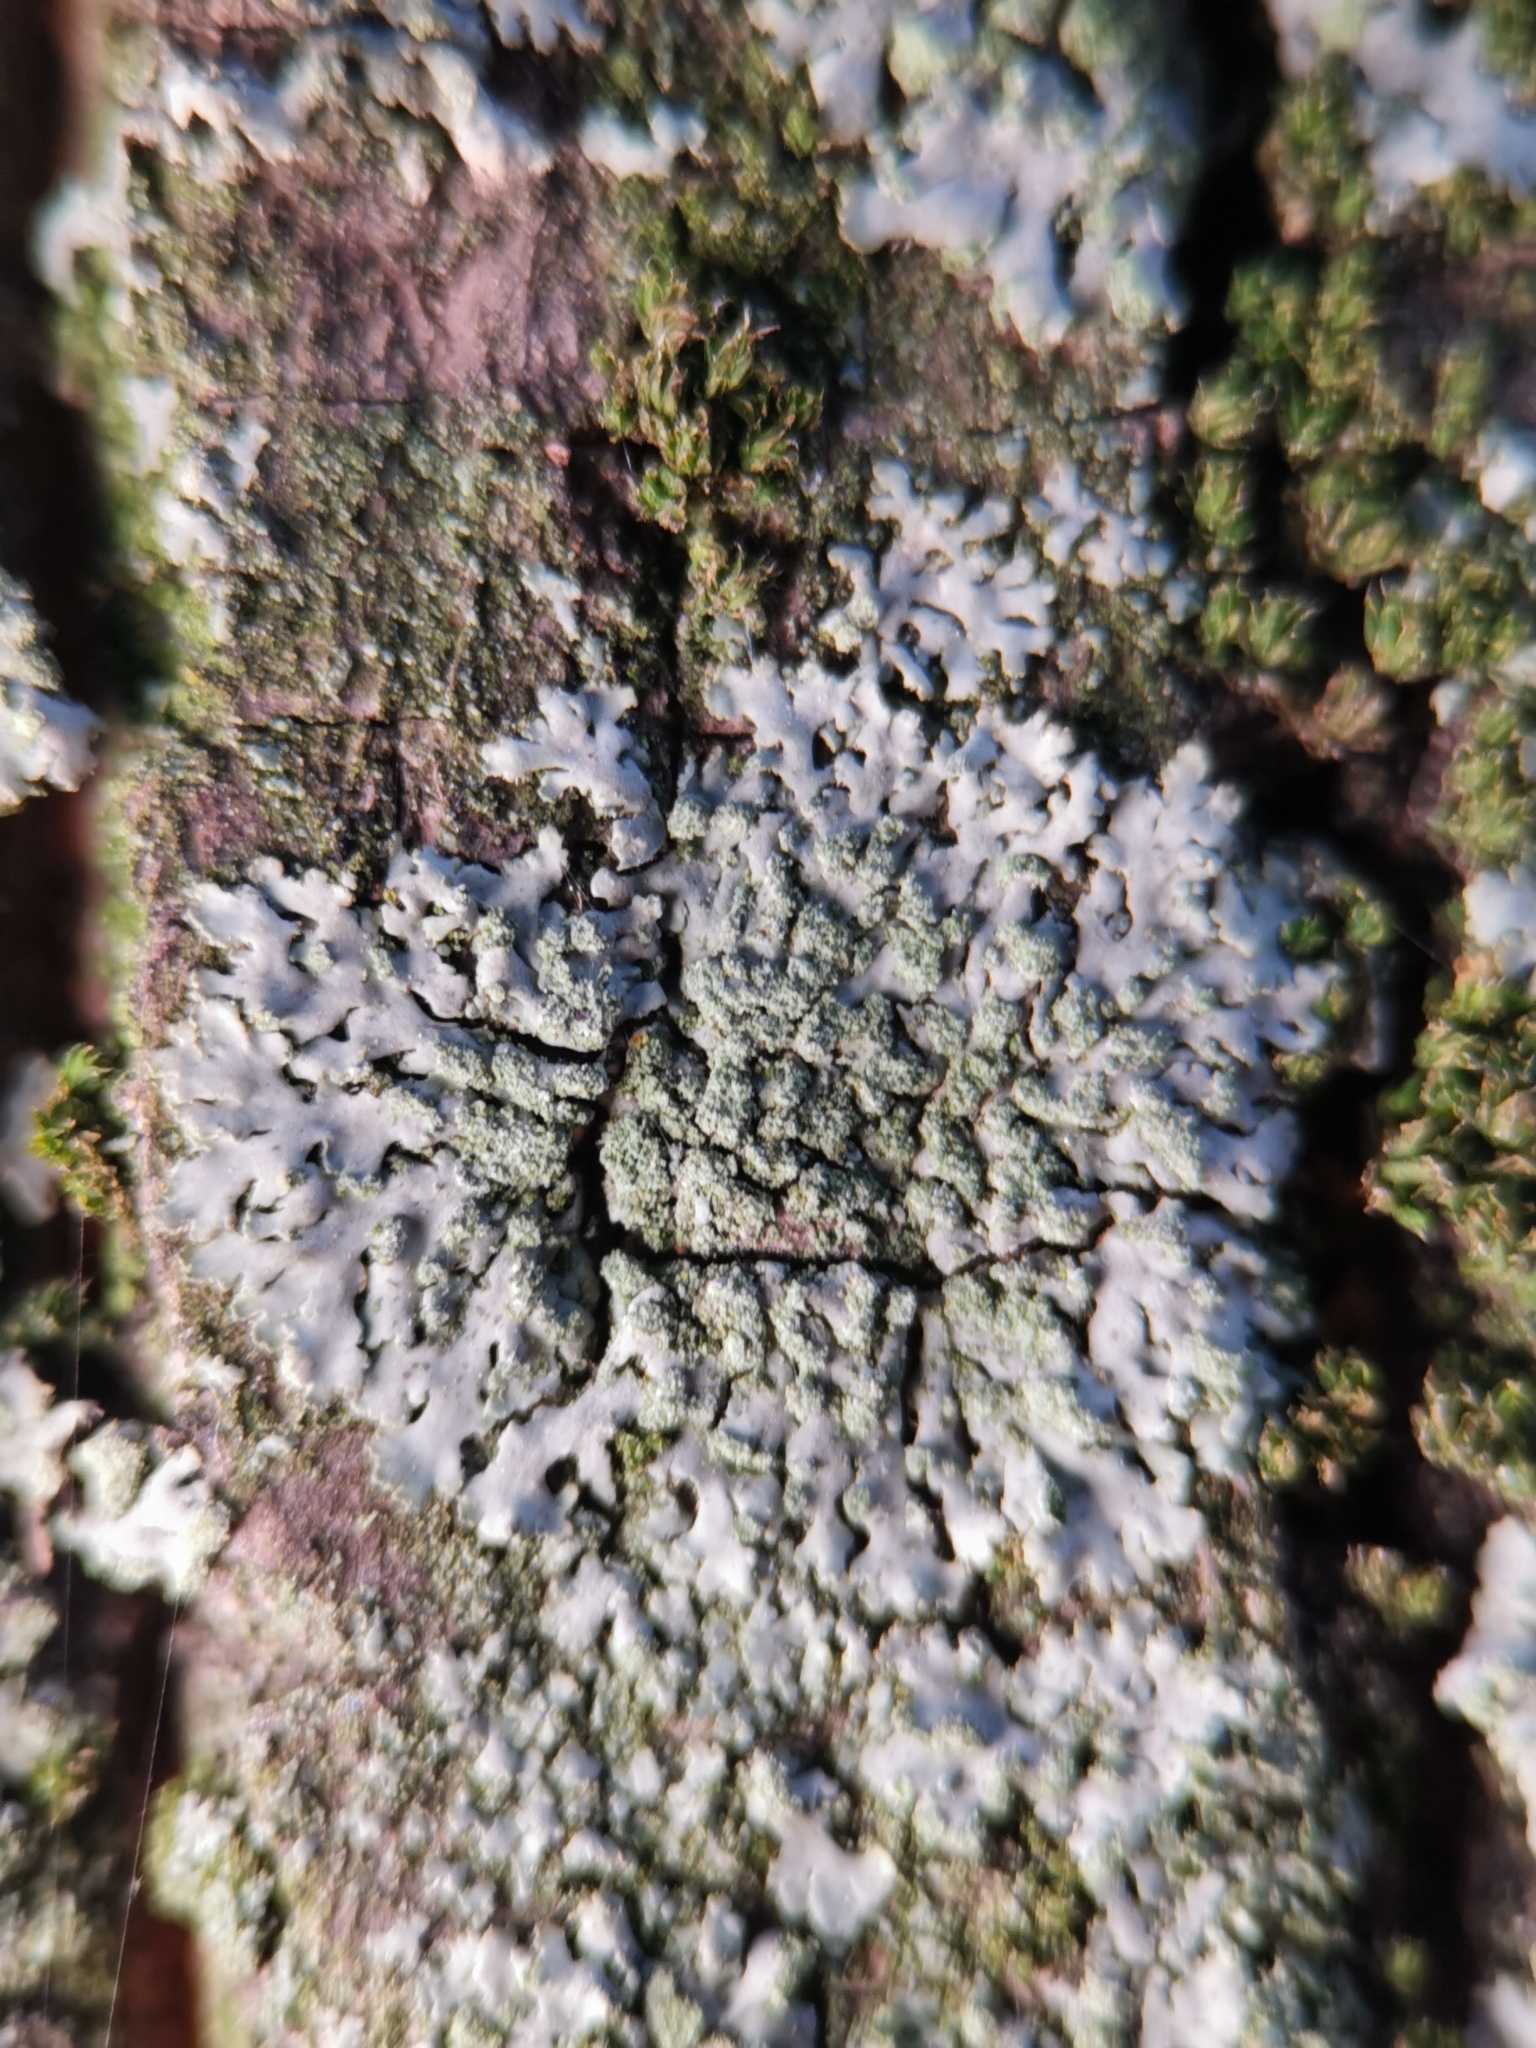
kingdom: Fungi
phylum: Ascomycota
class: Lecanoromycetes
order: Caliciales
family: Physciaceae
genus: Phaeophyscia
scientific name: Phaeophyscia orbicularis
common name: Mealy shadow lichen
